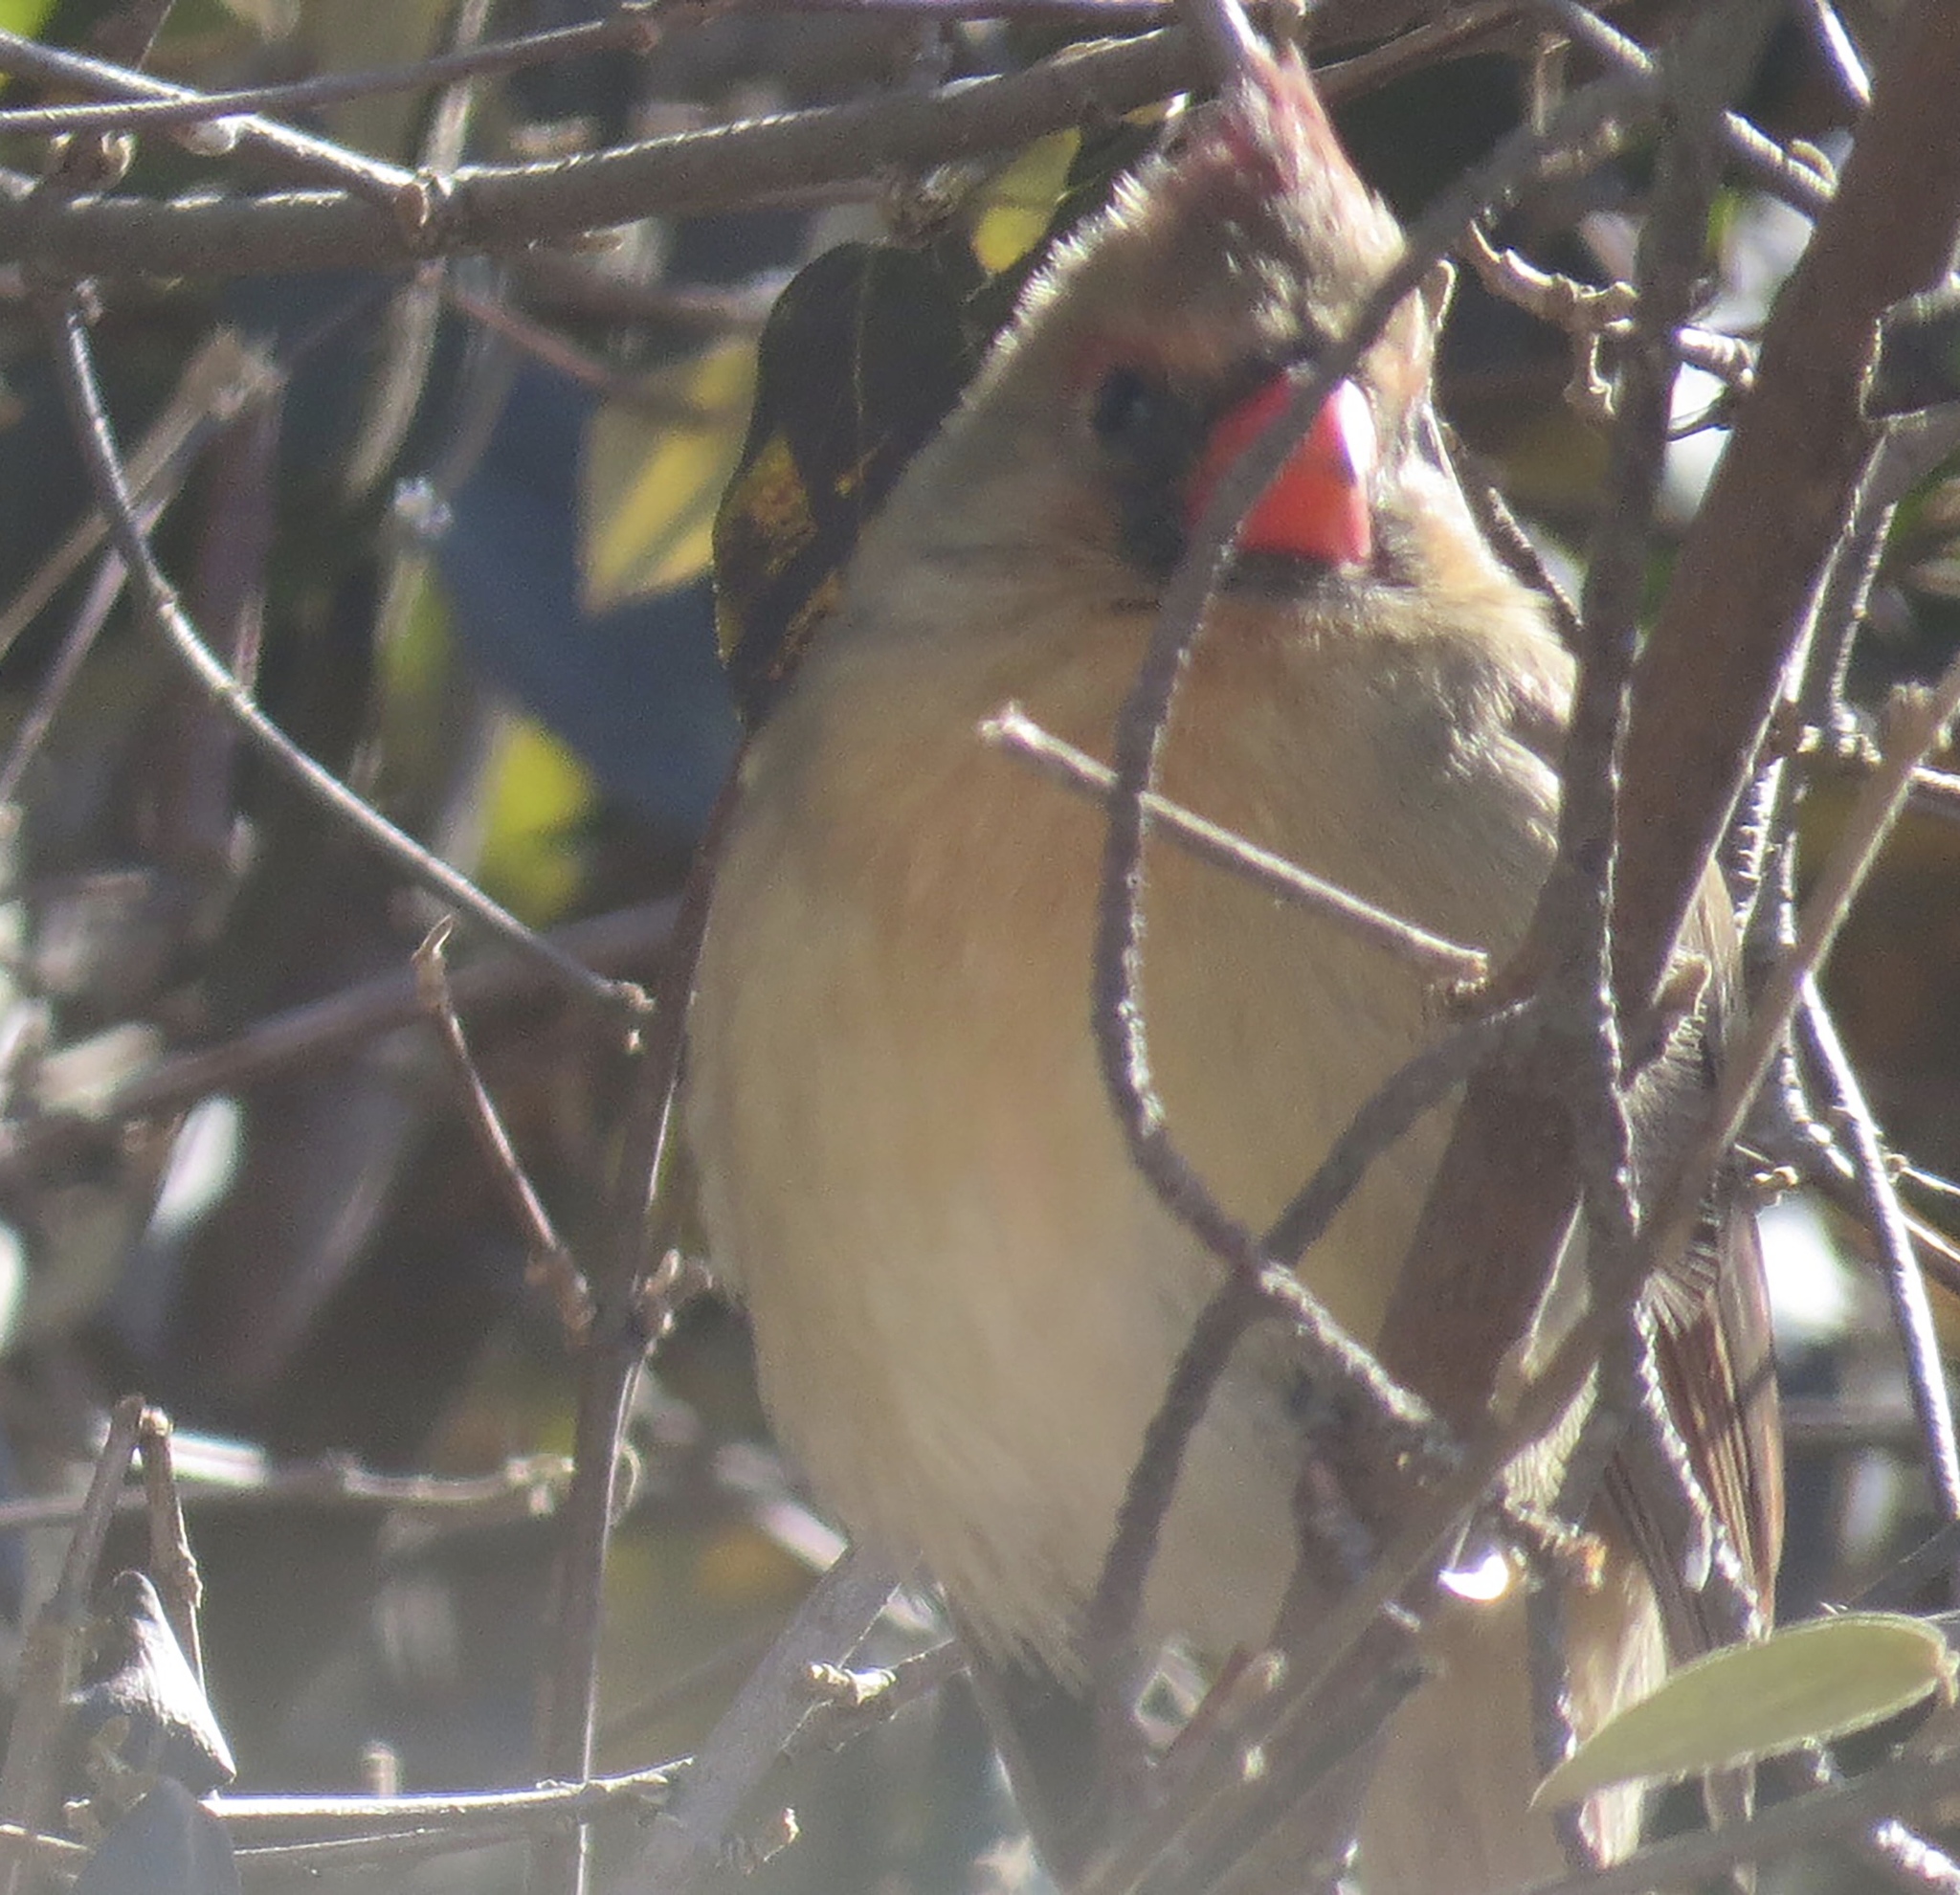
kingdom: Animalia
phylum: Chordata
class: Aves
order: Passeriformes
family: Cardinalidae
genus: Cardinalis
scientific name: Cardinalis cardinalis
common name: Northern cardinal
